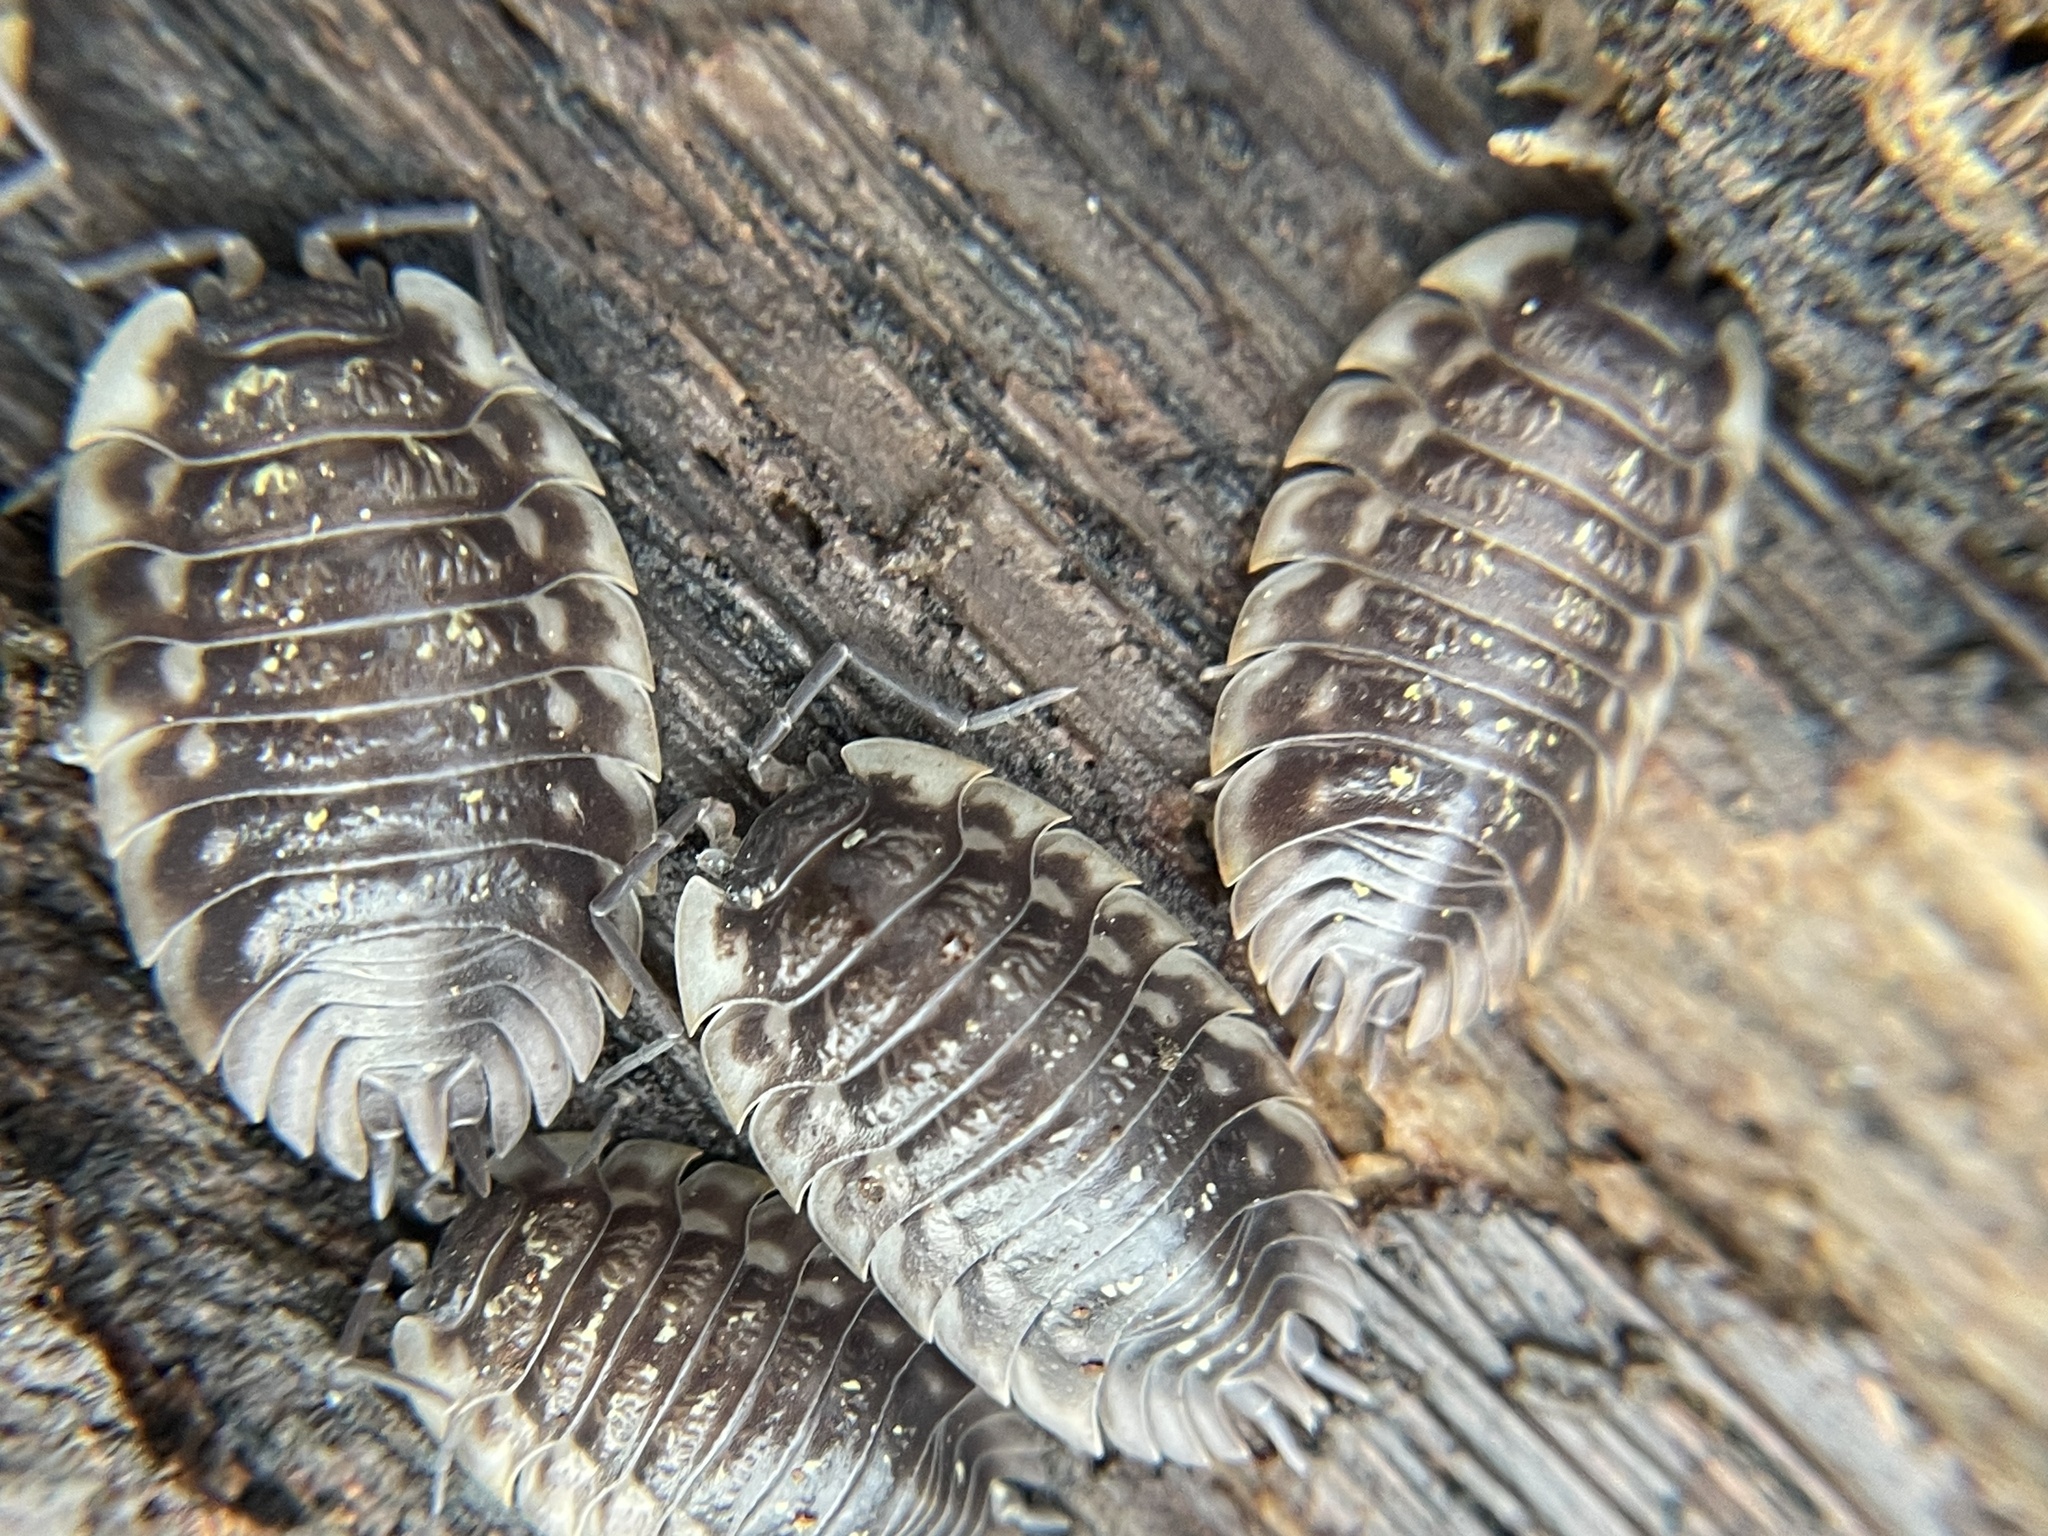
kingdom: Animalia
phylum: Arthropoda
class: Malacostraca
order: Isopoda
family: Oniscidae
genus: Oniscus
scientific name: Oniscus asellus
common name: Common shiny woodlouse
